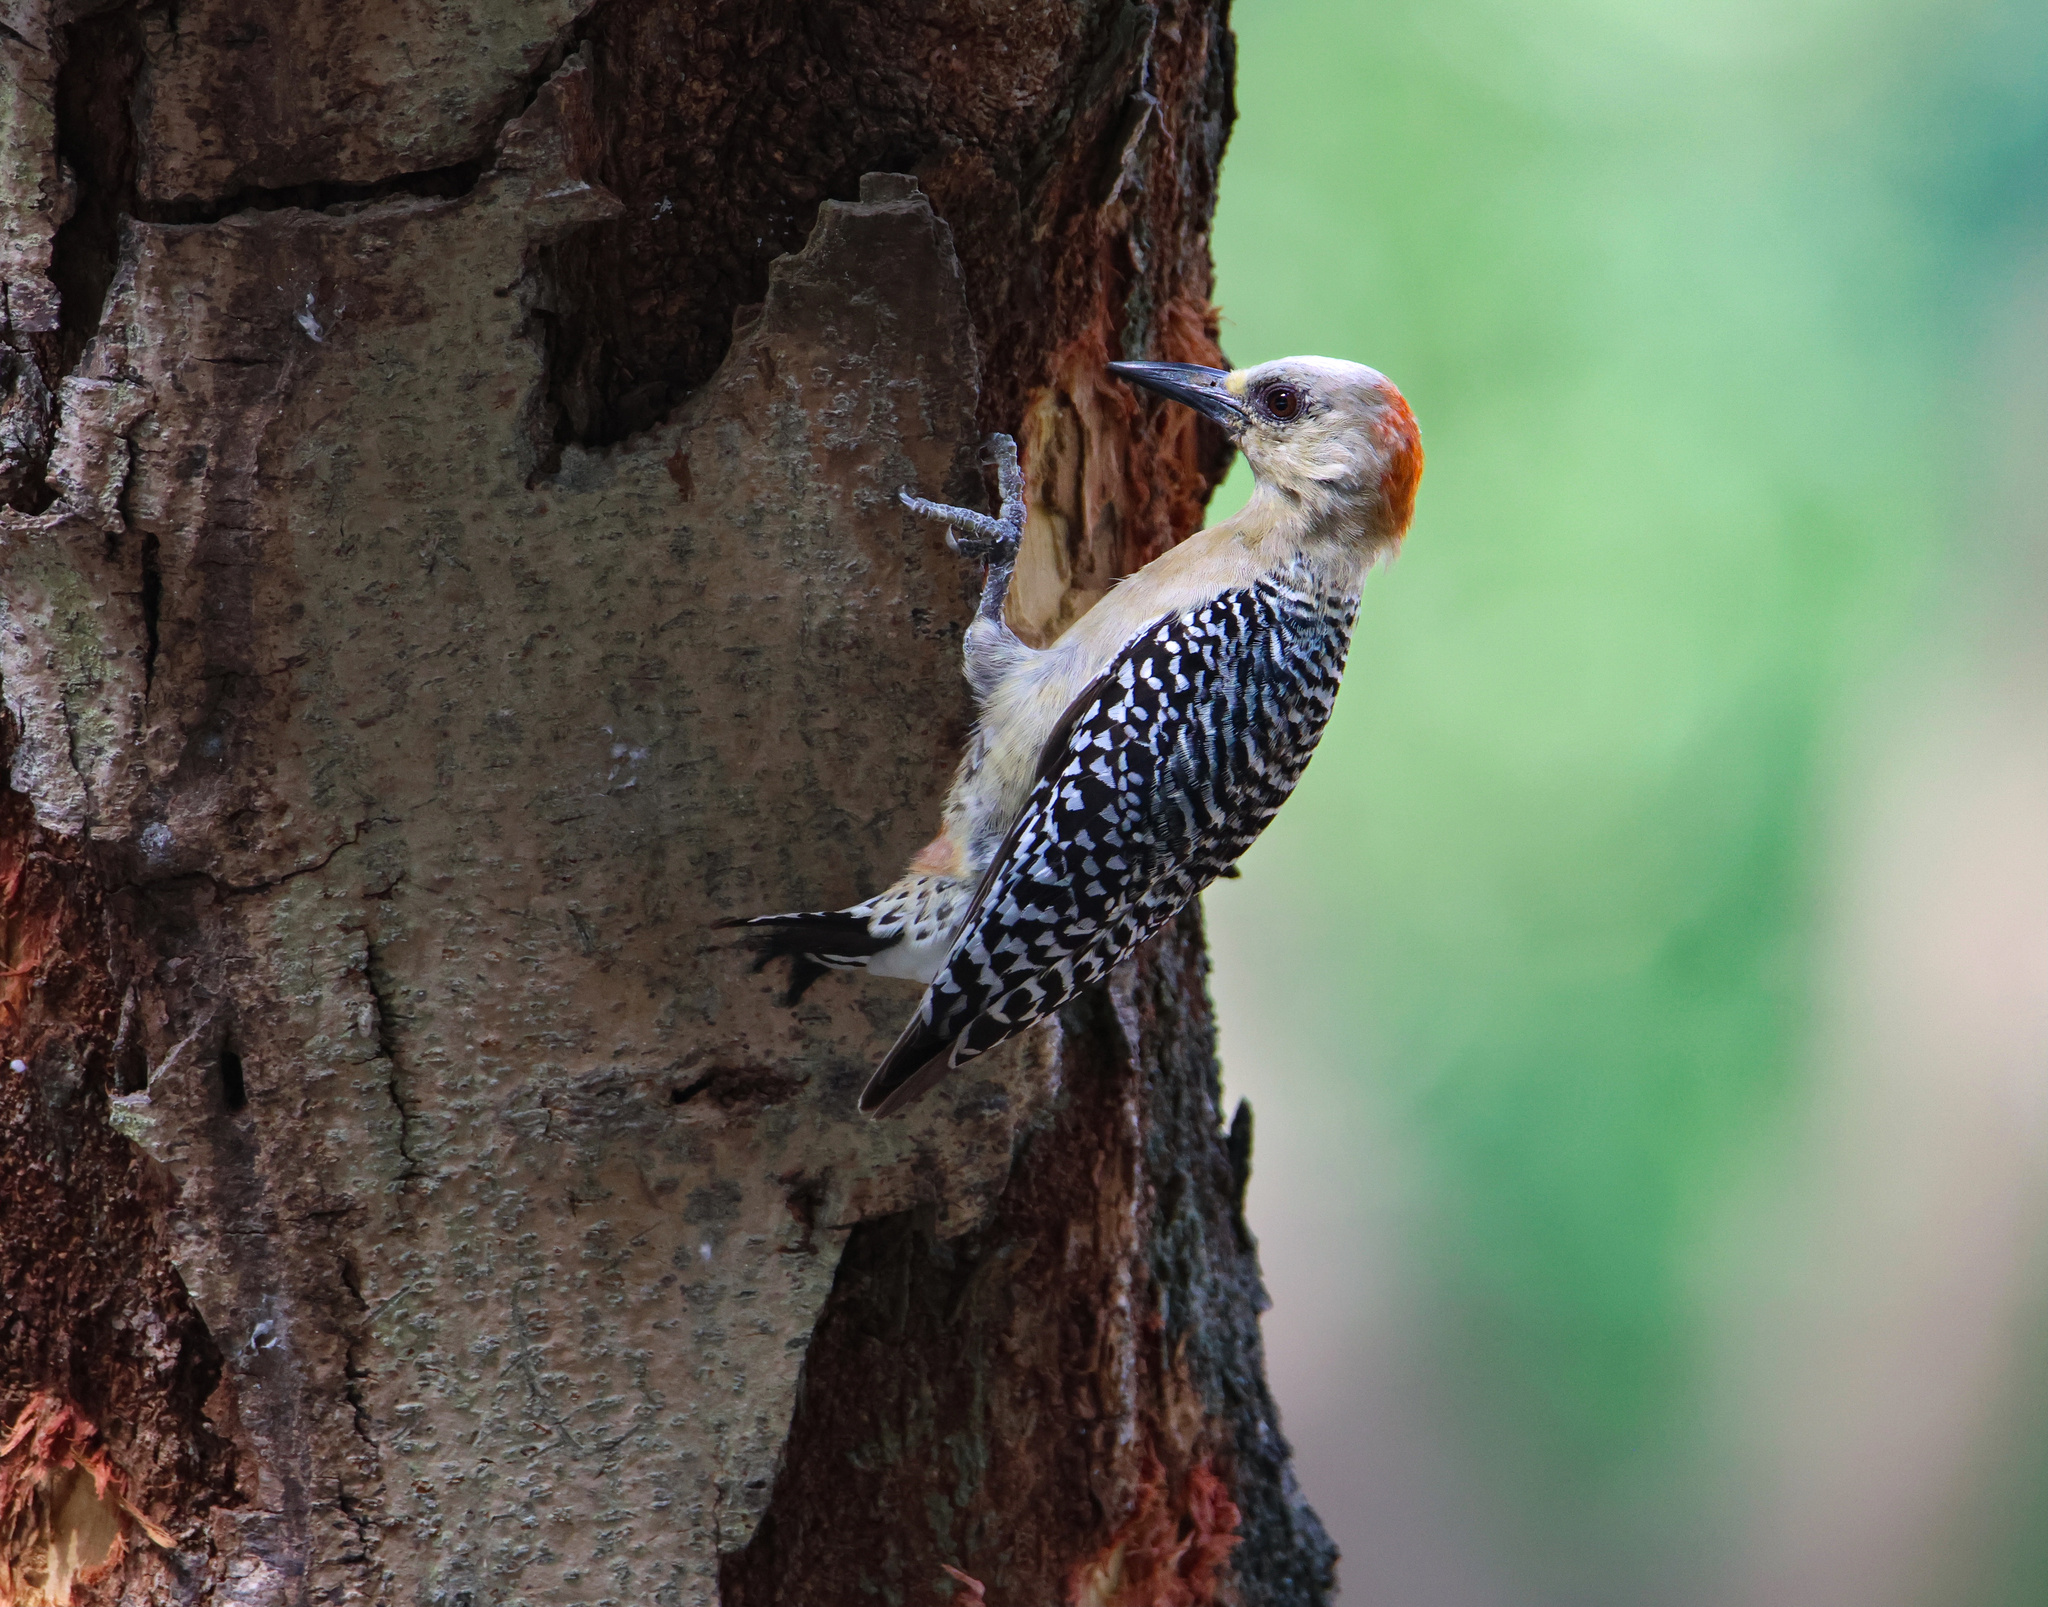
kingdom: Animalia
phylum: Chordata
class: Aves
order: Piciformes
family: Picidae
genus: Melanerpes
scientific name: Melanerpes rubricapillus
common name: Red-crowned woodpecker
